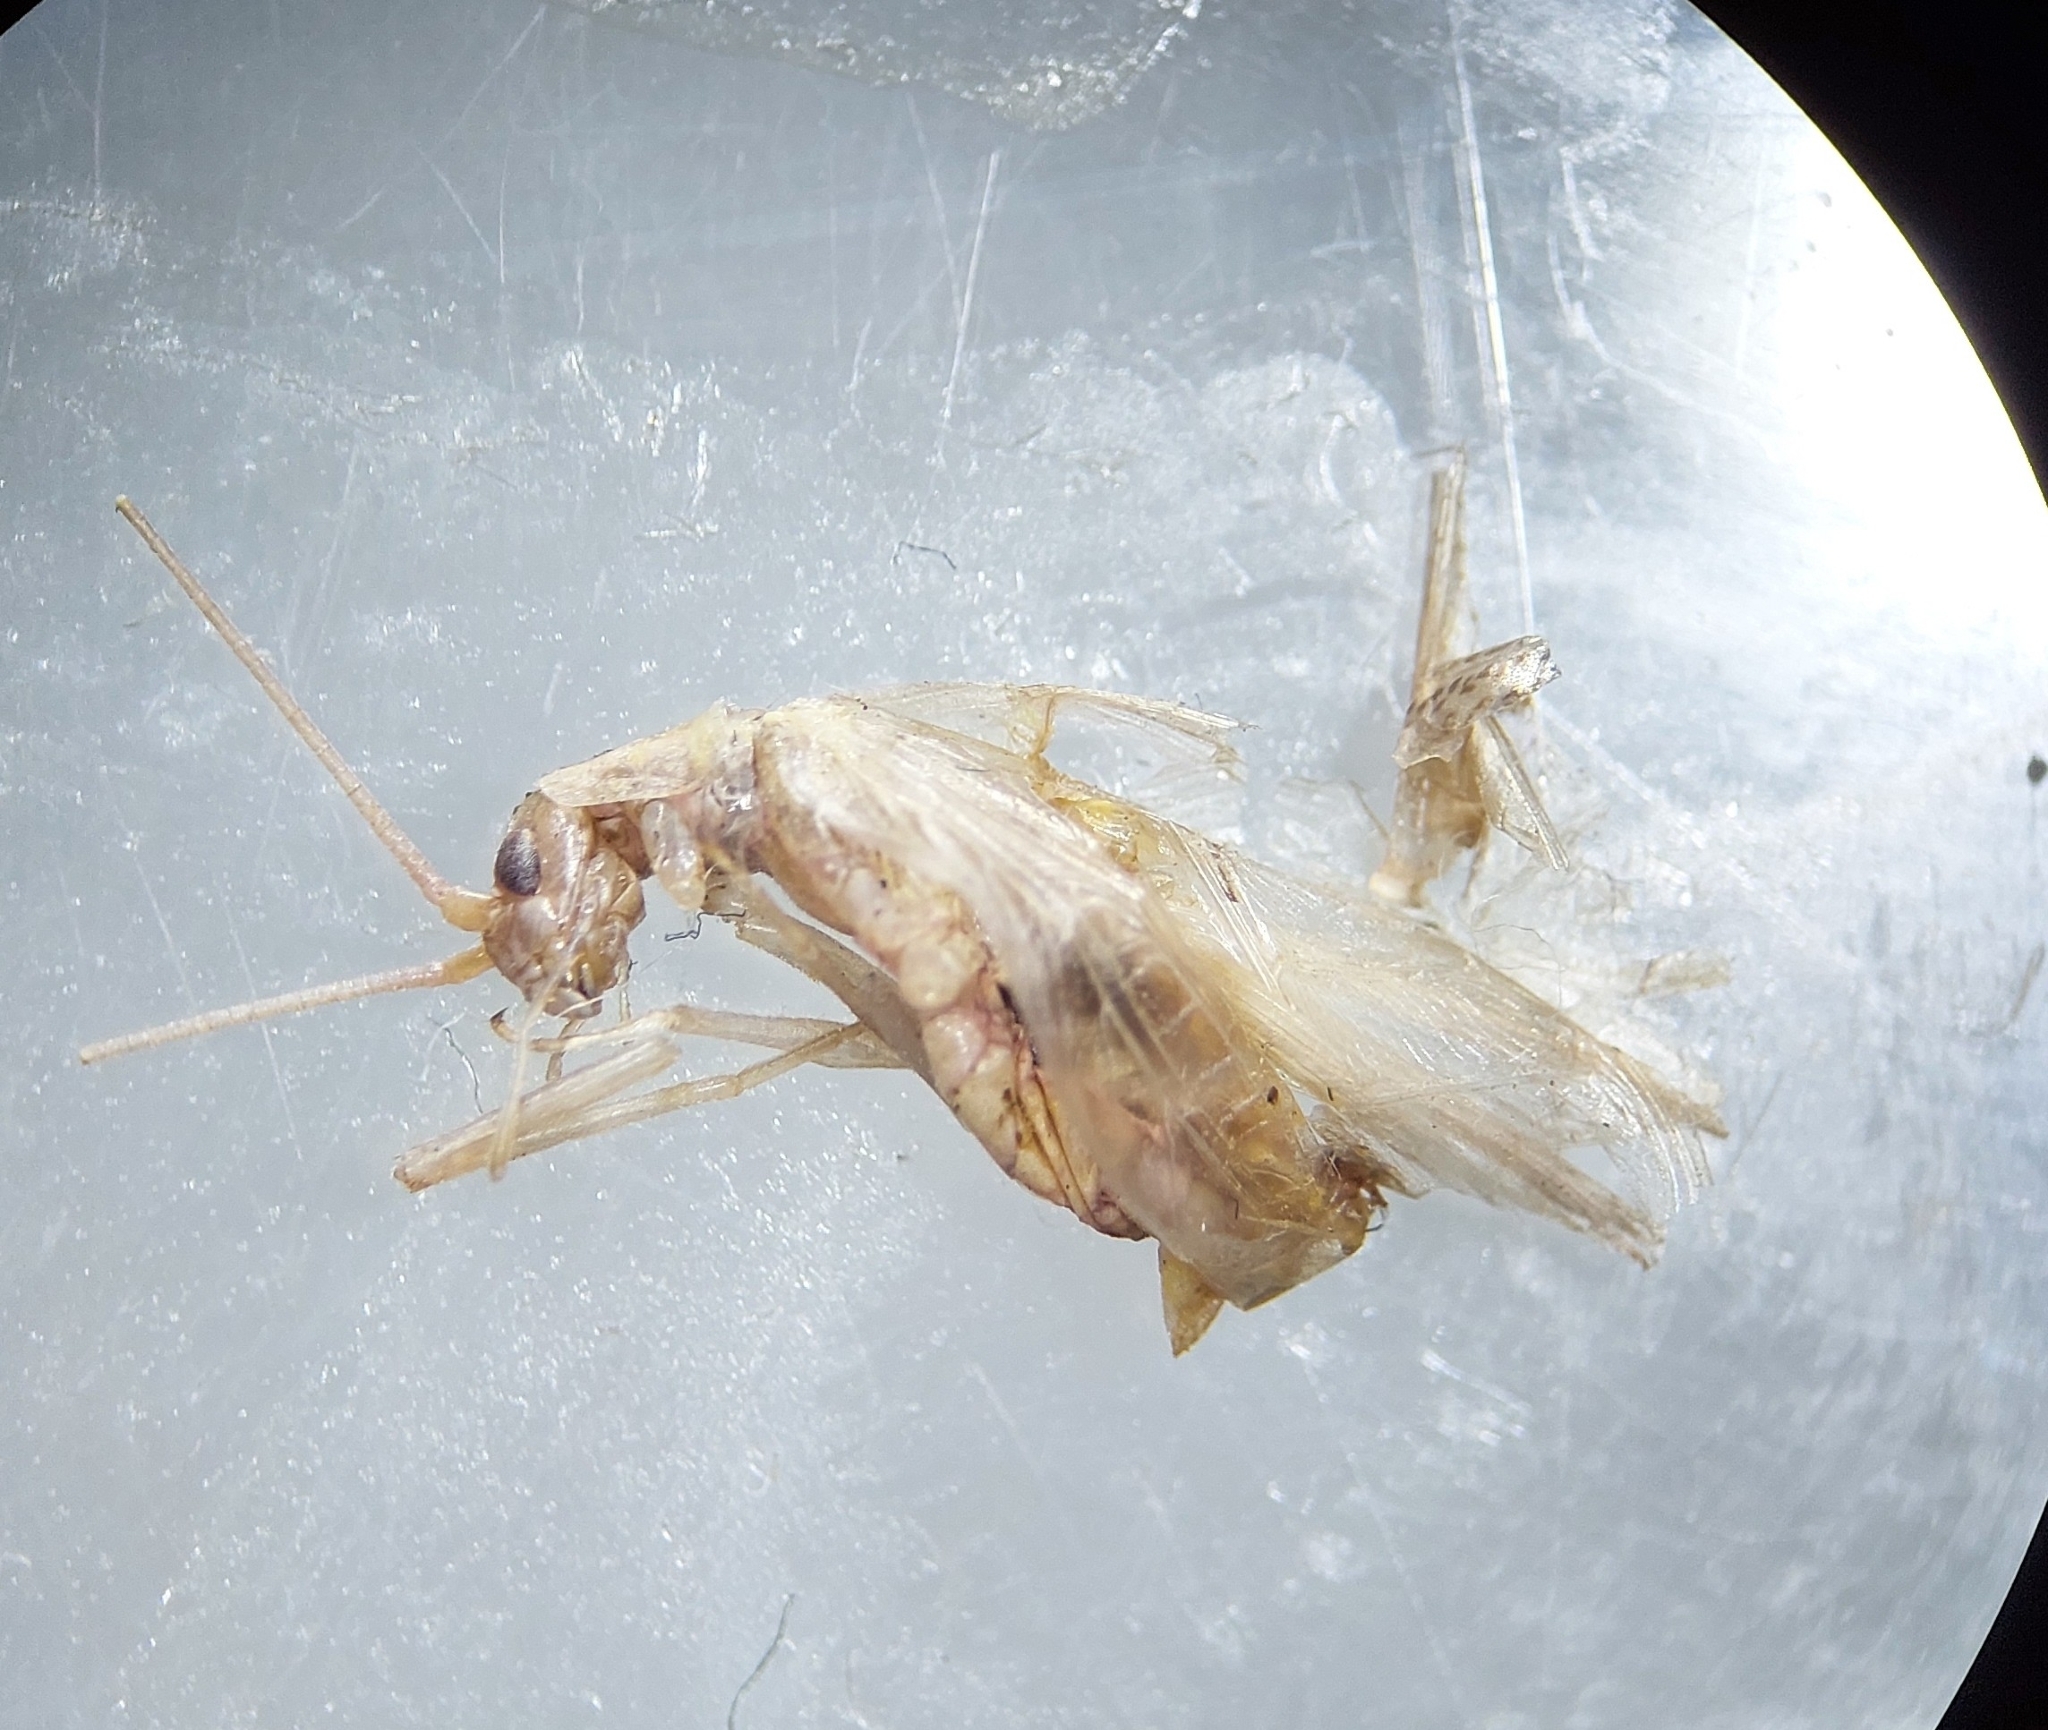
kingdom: Animalia
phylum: Arthropoda
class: Insecta
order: Orthoptera
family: Gryllidae
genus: Oecanthus
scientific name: Oecanthus pellucens
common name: Tree-cricket
